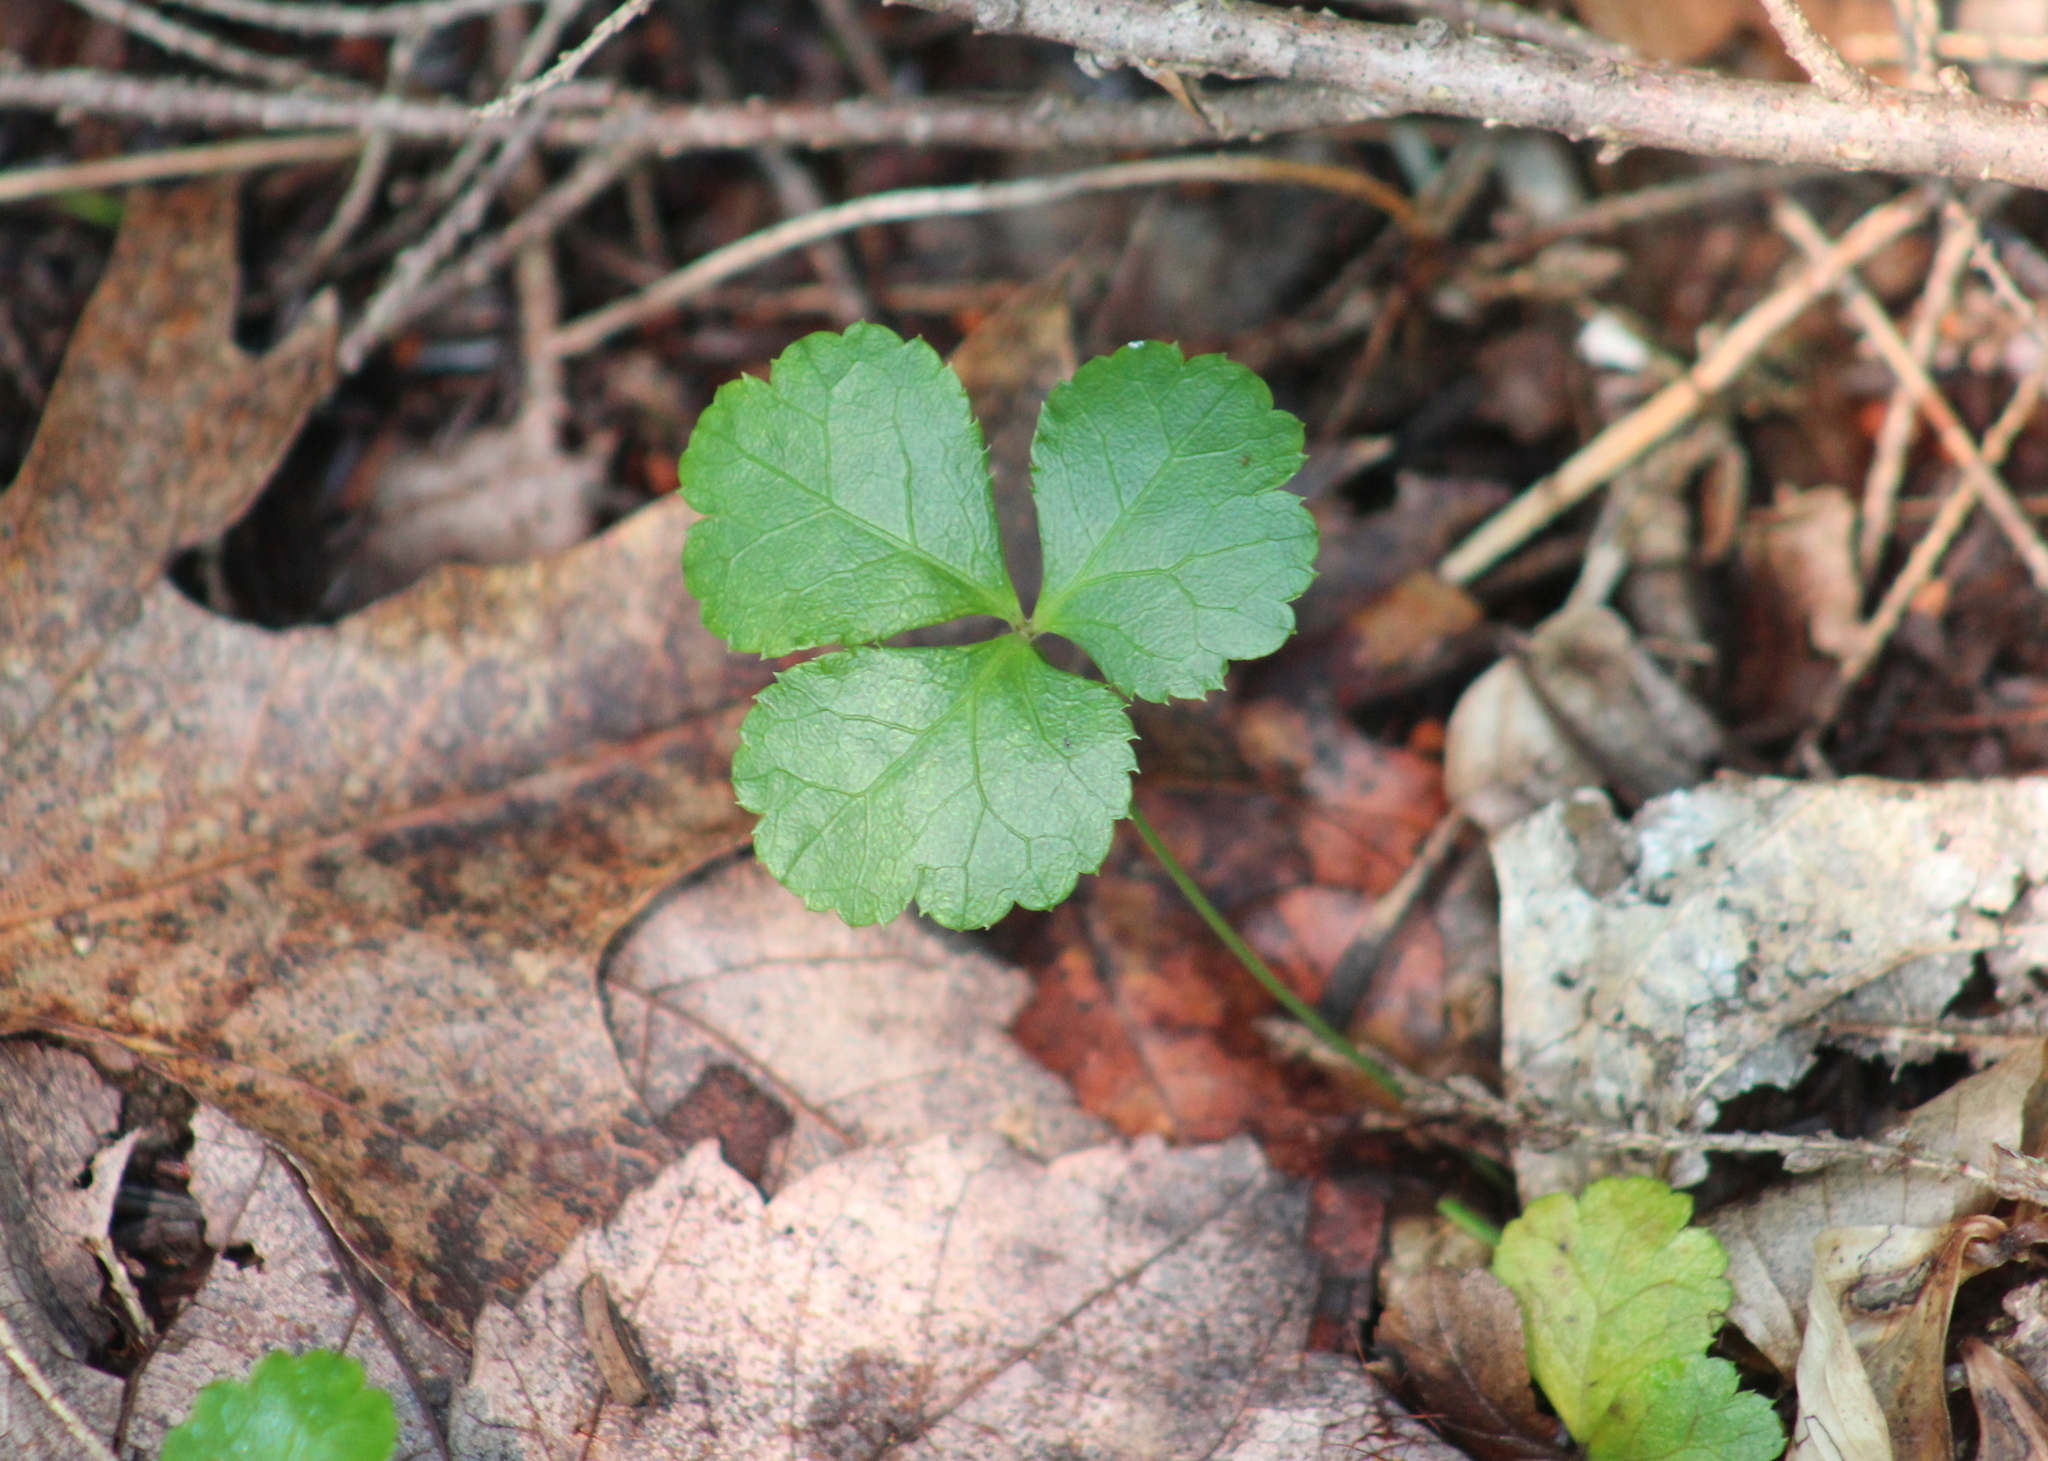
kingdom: Plantae
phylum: Tracheophyta
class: Magnoliopsida
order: Ranunculales
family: Ranunculaceae
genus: Coptis
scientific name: Coptis trifolia
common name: Canker-root
